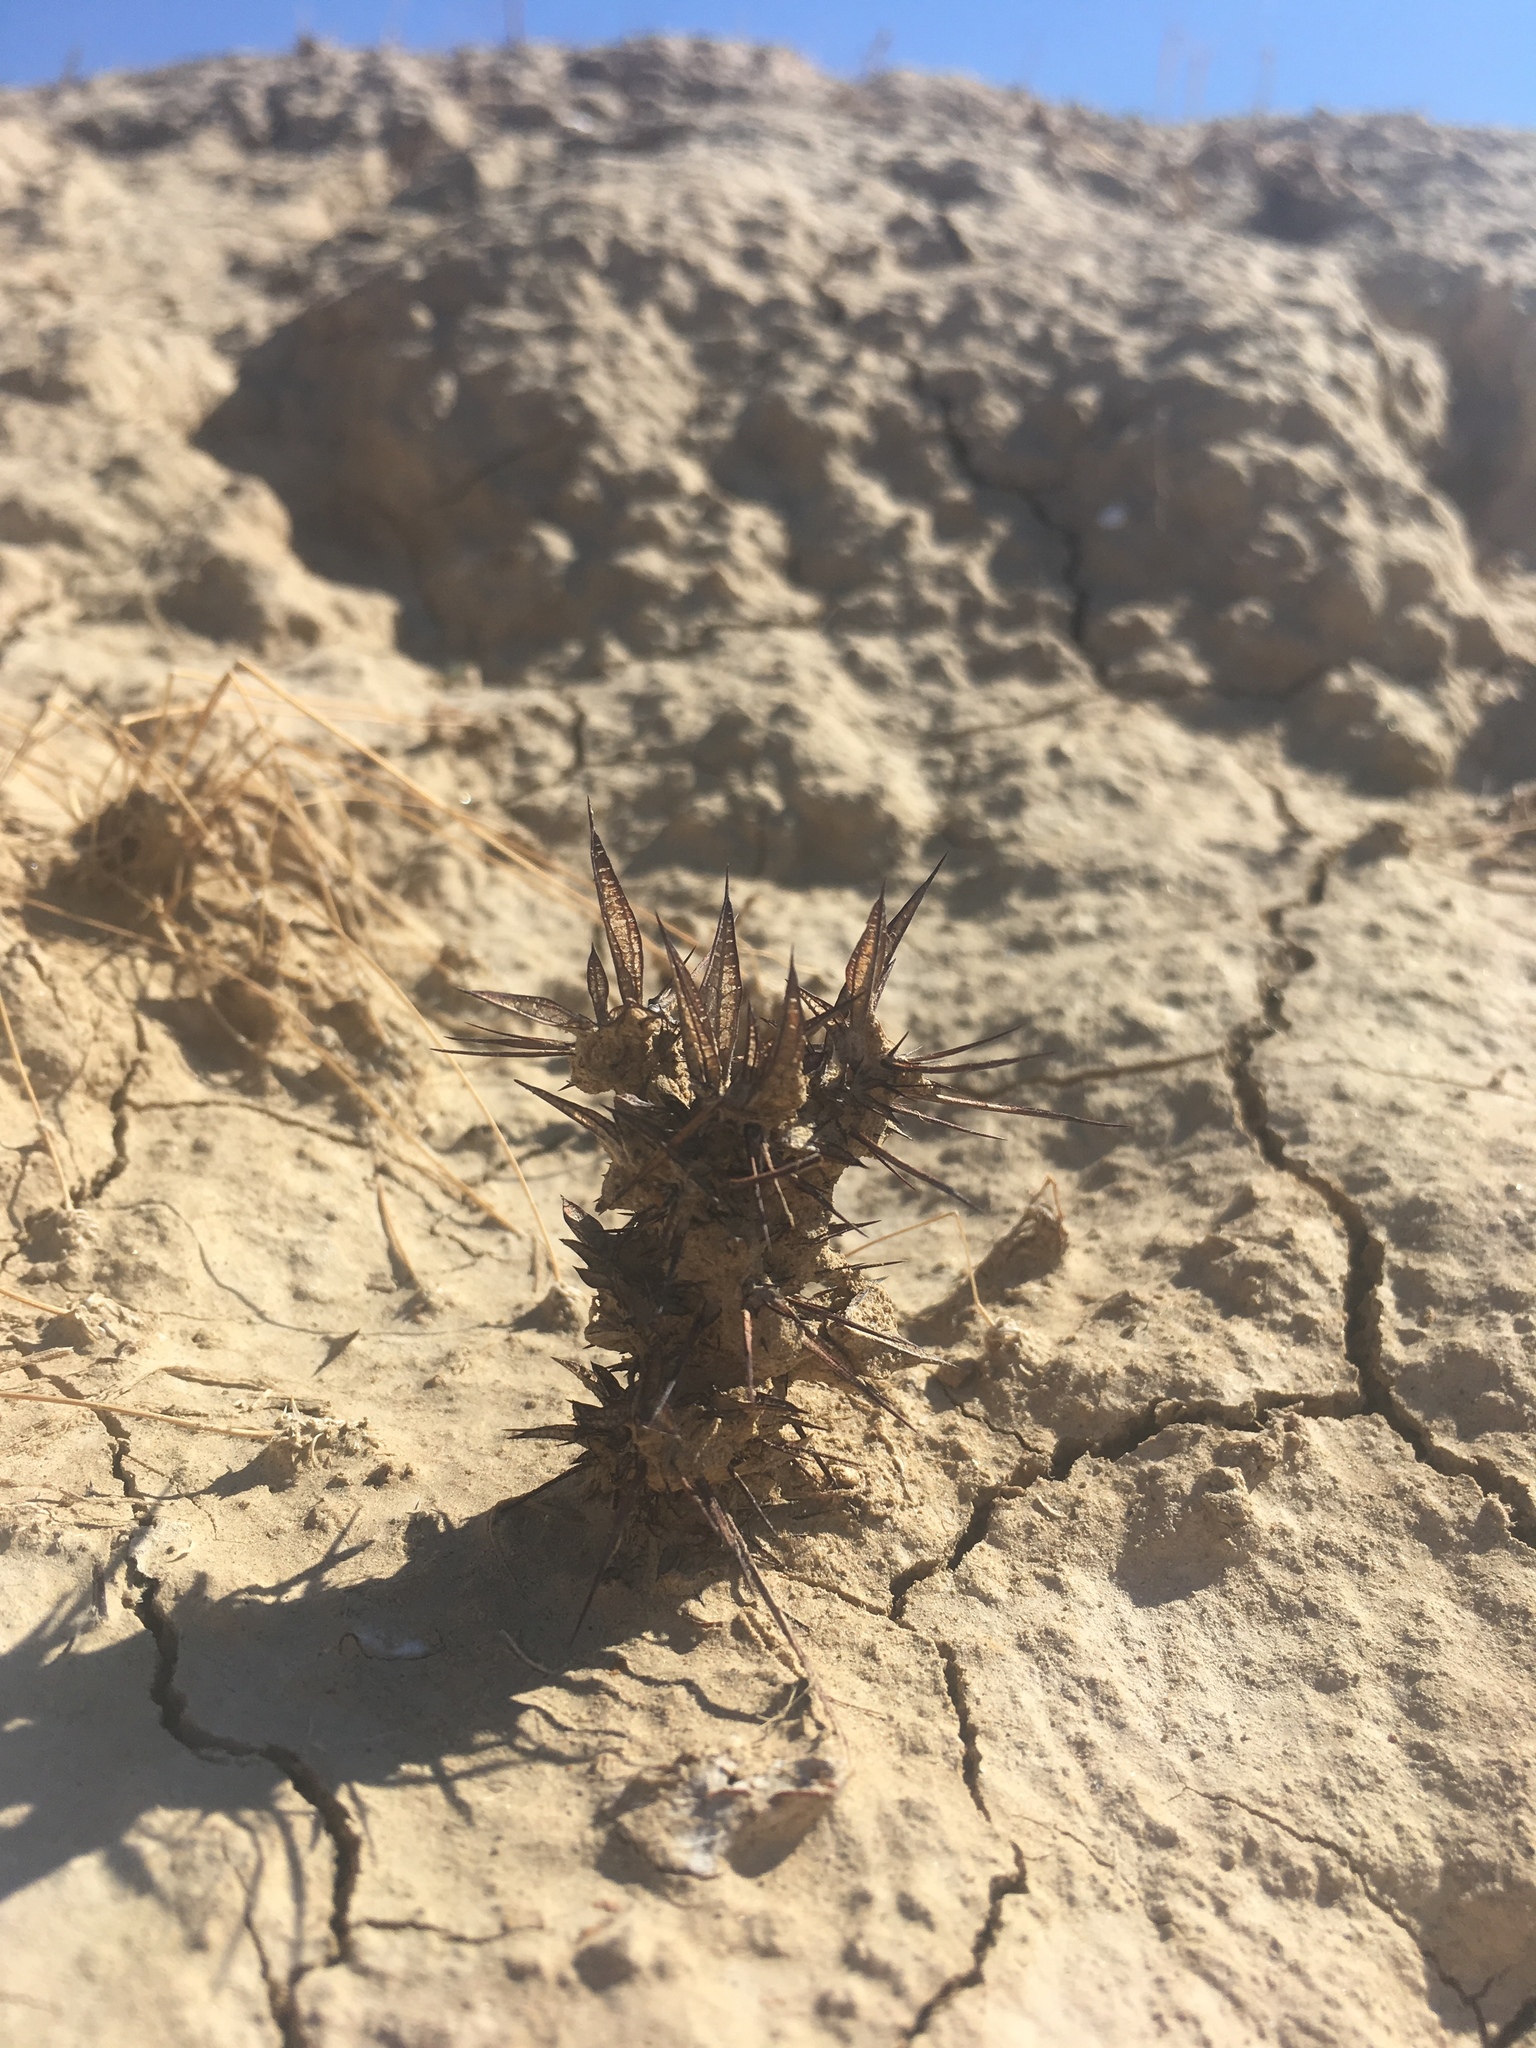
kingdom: Plantae
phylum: Tracheophyta
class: Magnoliopsida
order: Caryophyllales
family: Polygonaceae
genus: Chorizanthe
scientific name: Chorizanthe rigida
